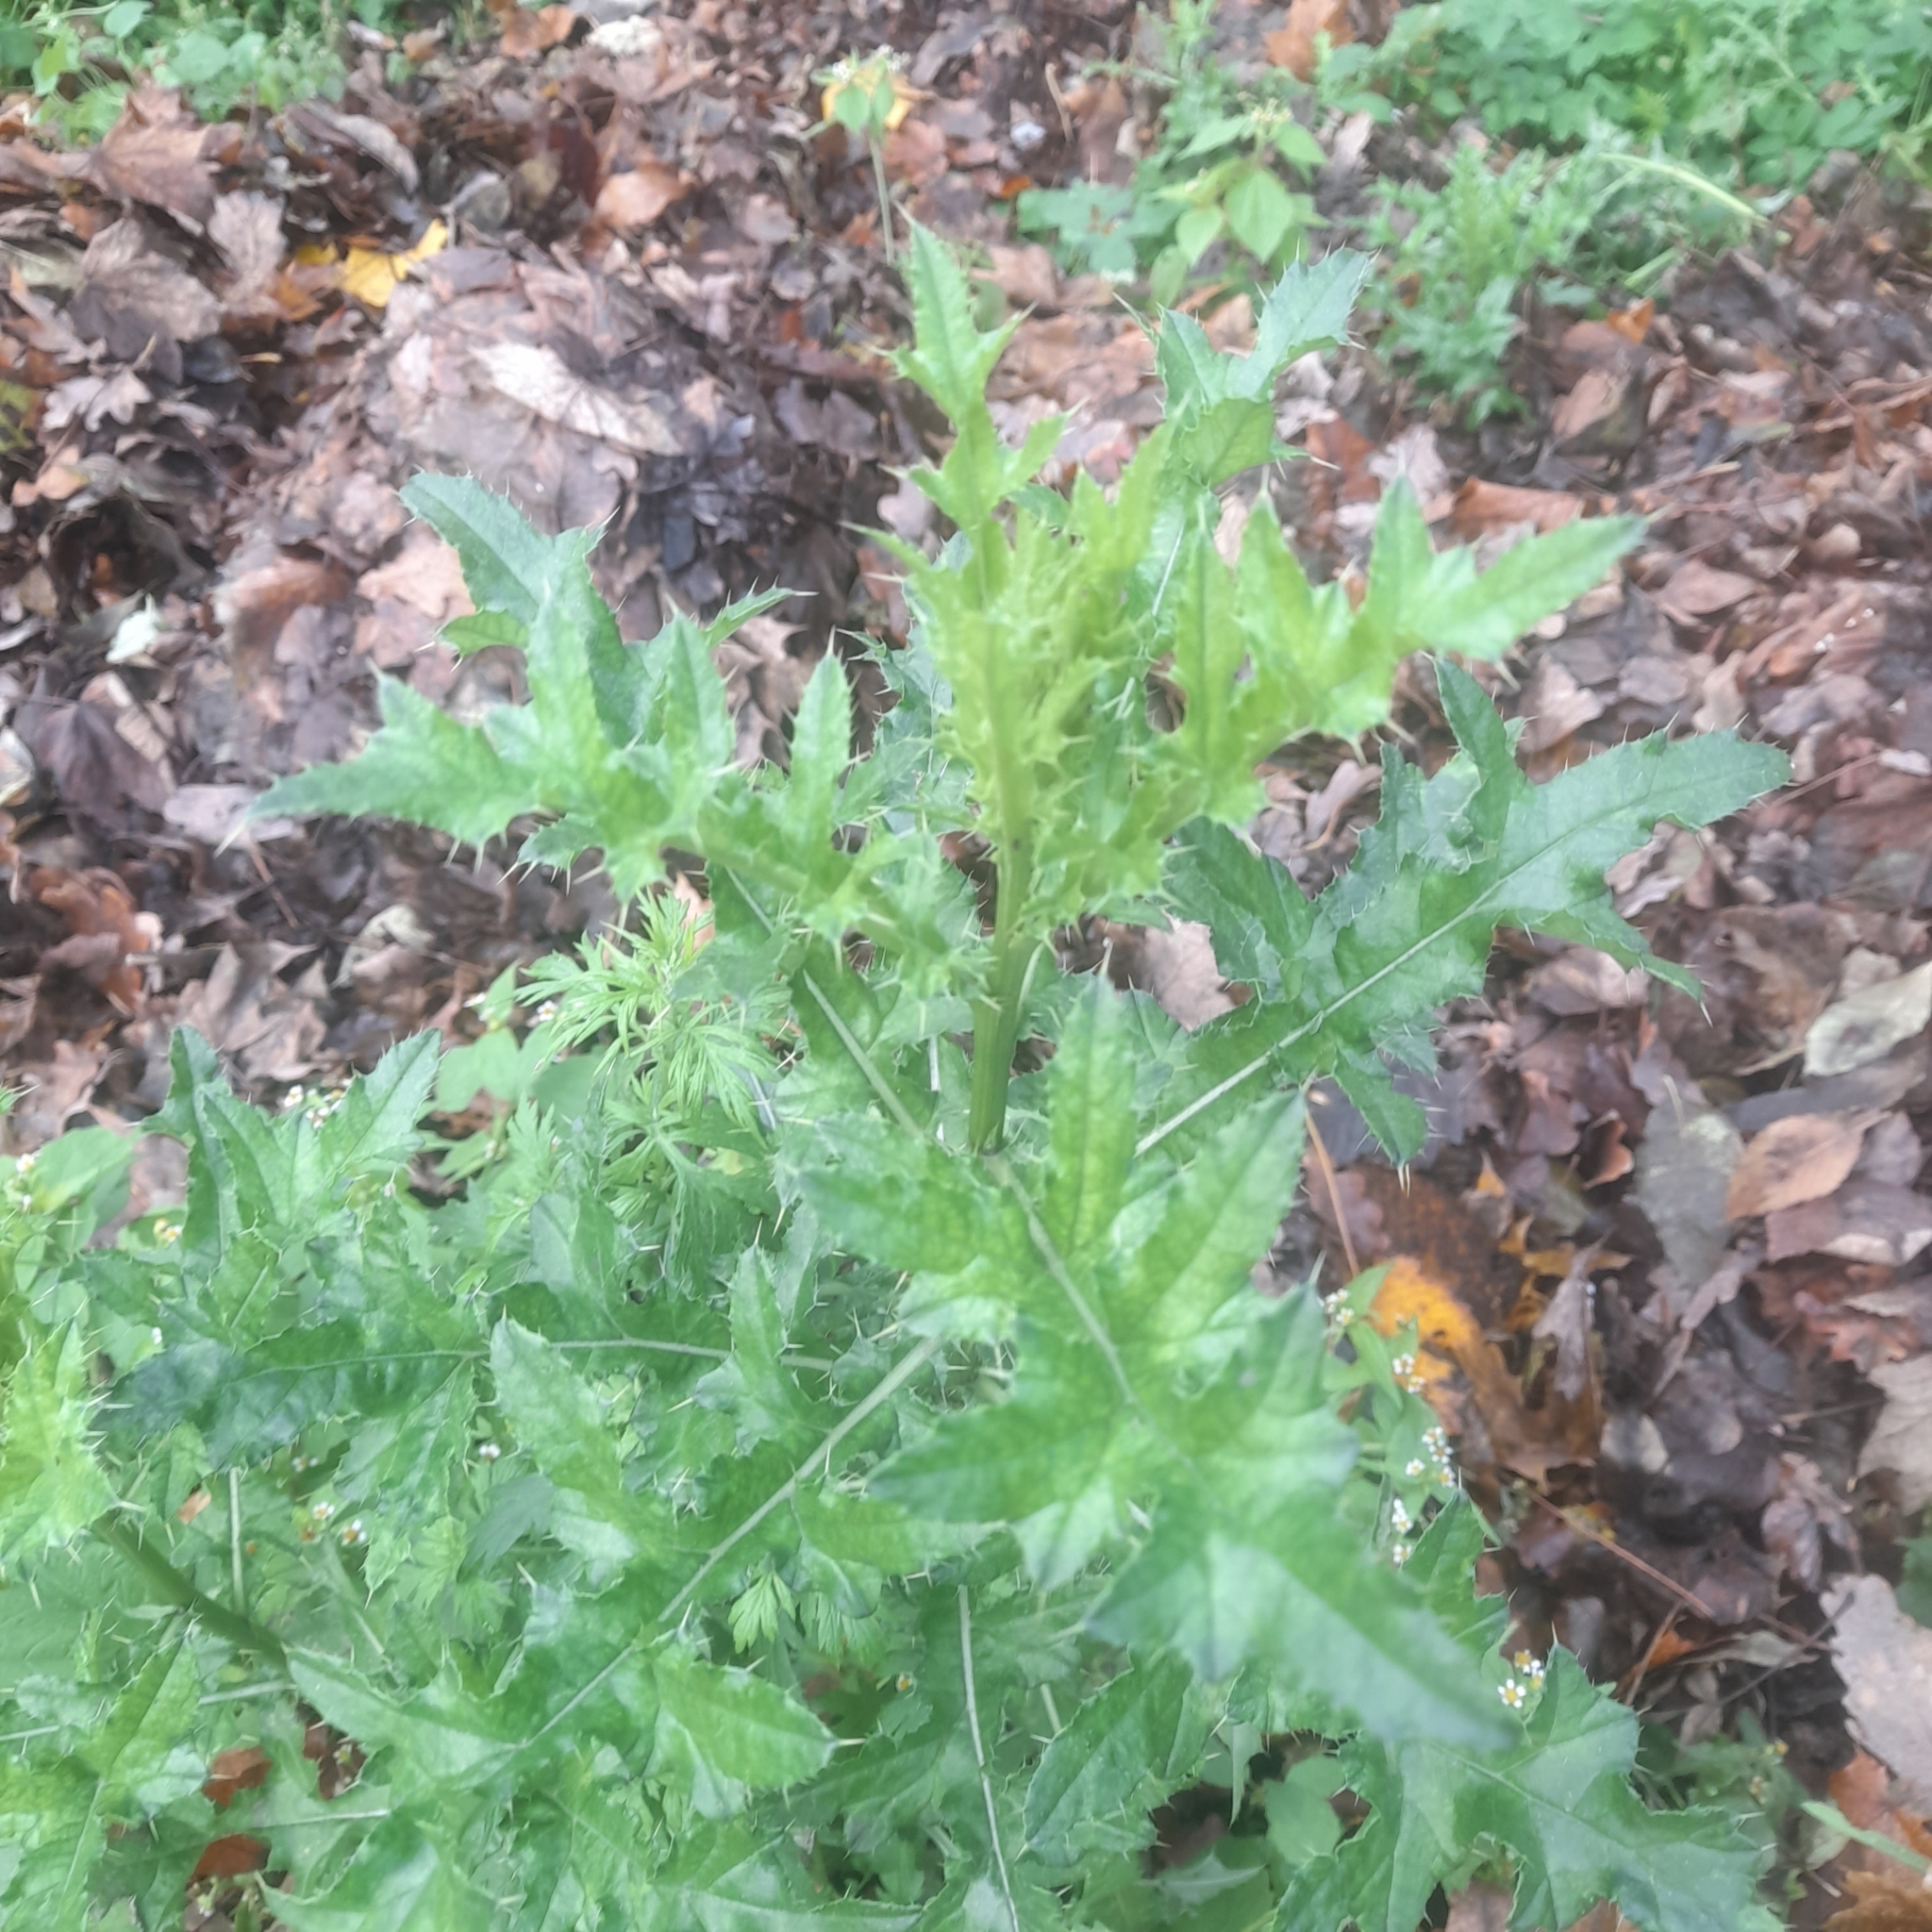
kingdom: Plantae
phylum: Tracheophyta
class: Magnoliopsida
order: Asterales
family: Asteraceae
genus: Cirsium
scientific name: Cirsium arvense
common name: Creeping thistle
